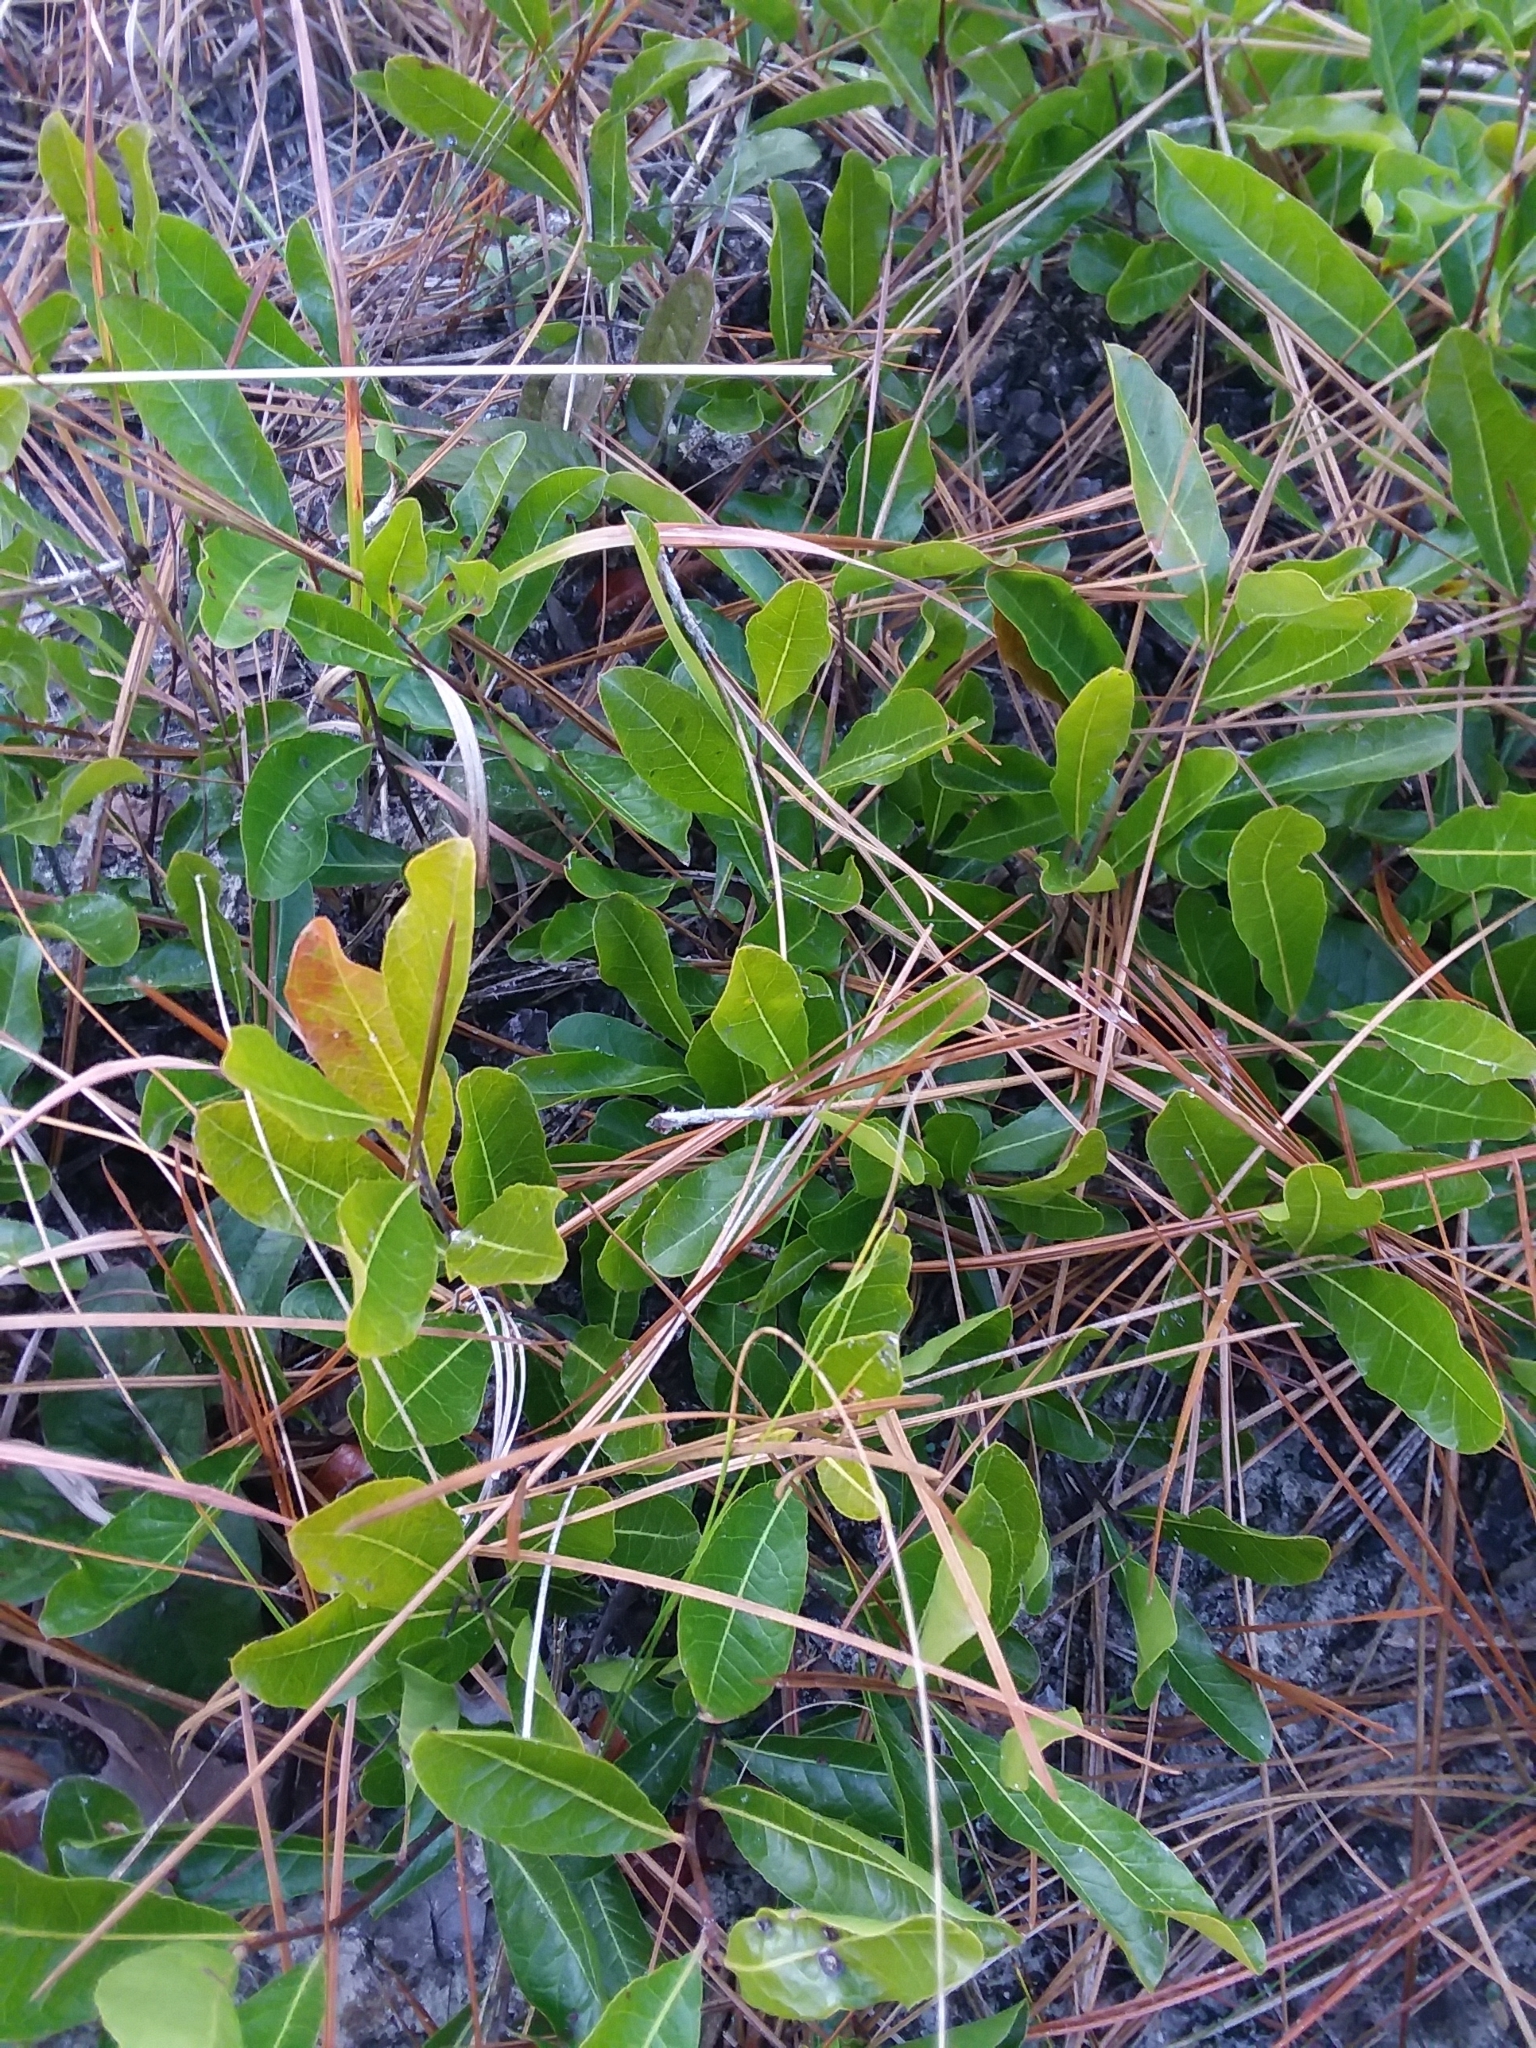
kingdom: Plantae
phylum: Tracheophyta
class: Magnoliopsida
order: Malpighiales
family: Chrysobalanaceae
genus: Geobalanus
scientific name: Geobalanus oblongifolius
